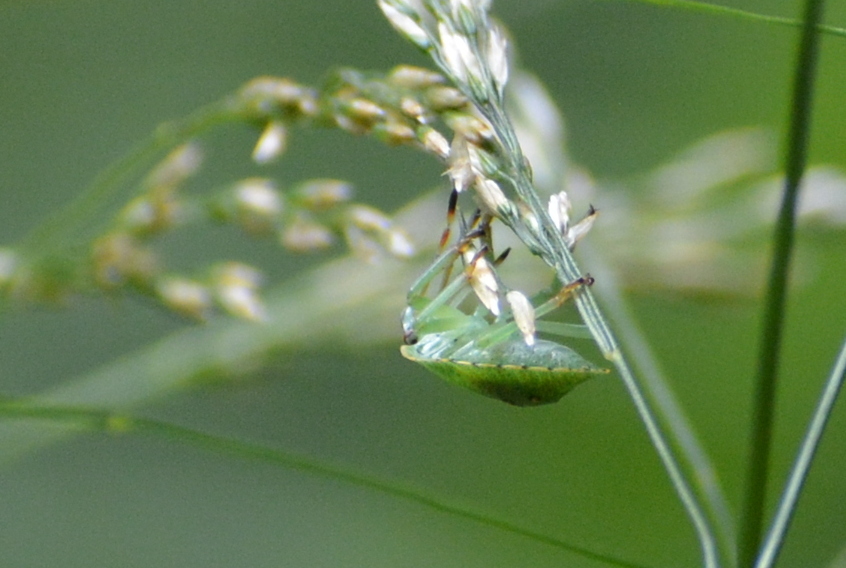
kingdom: Animalia
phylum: Arthropoda
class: Insecta
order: Hemiptera
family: Pentatomidae
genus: Palomena
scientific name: Palomena prasina
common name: Green shieldbug
